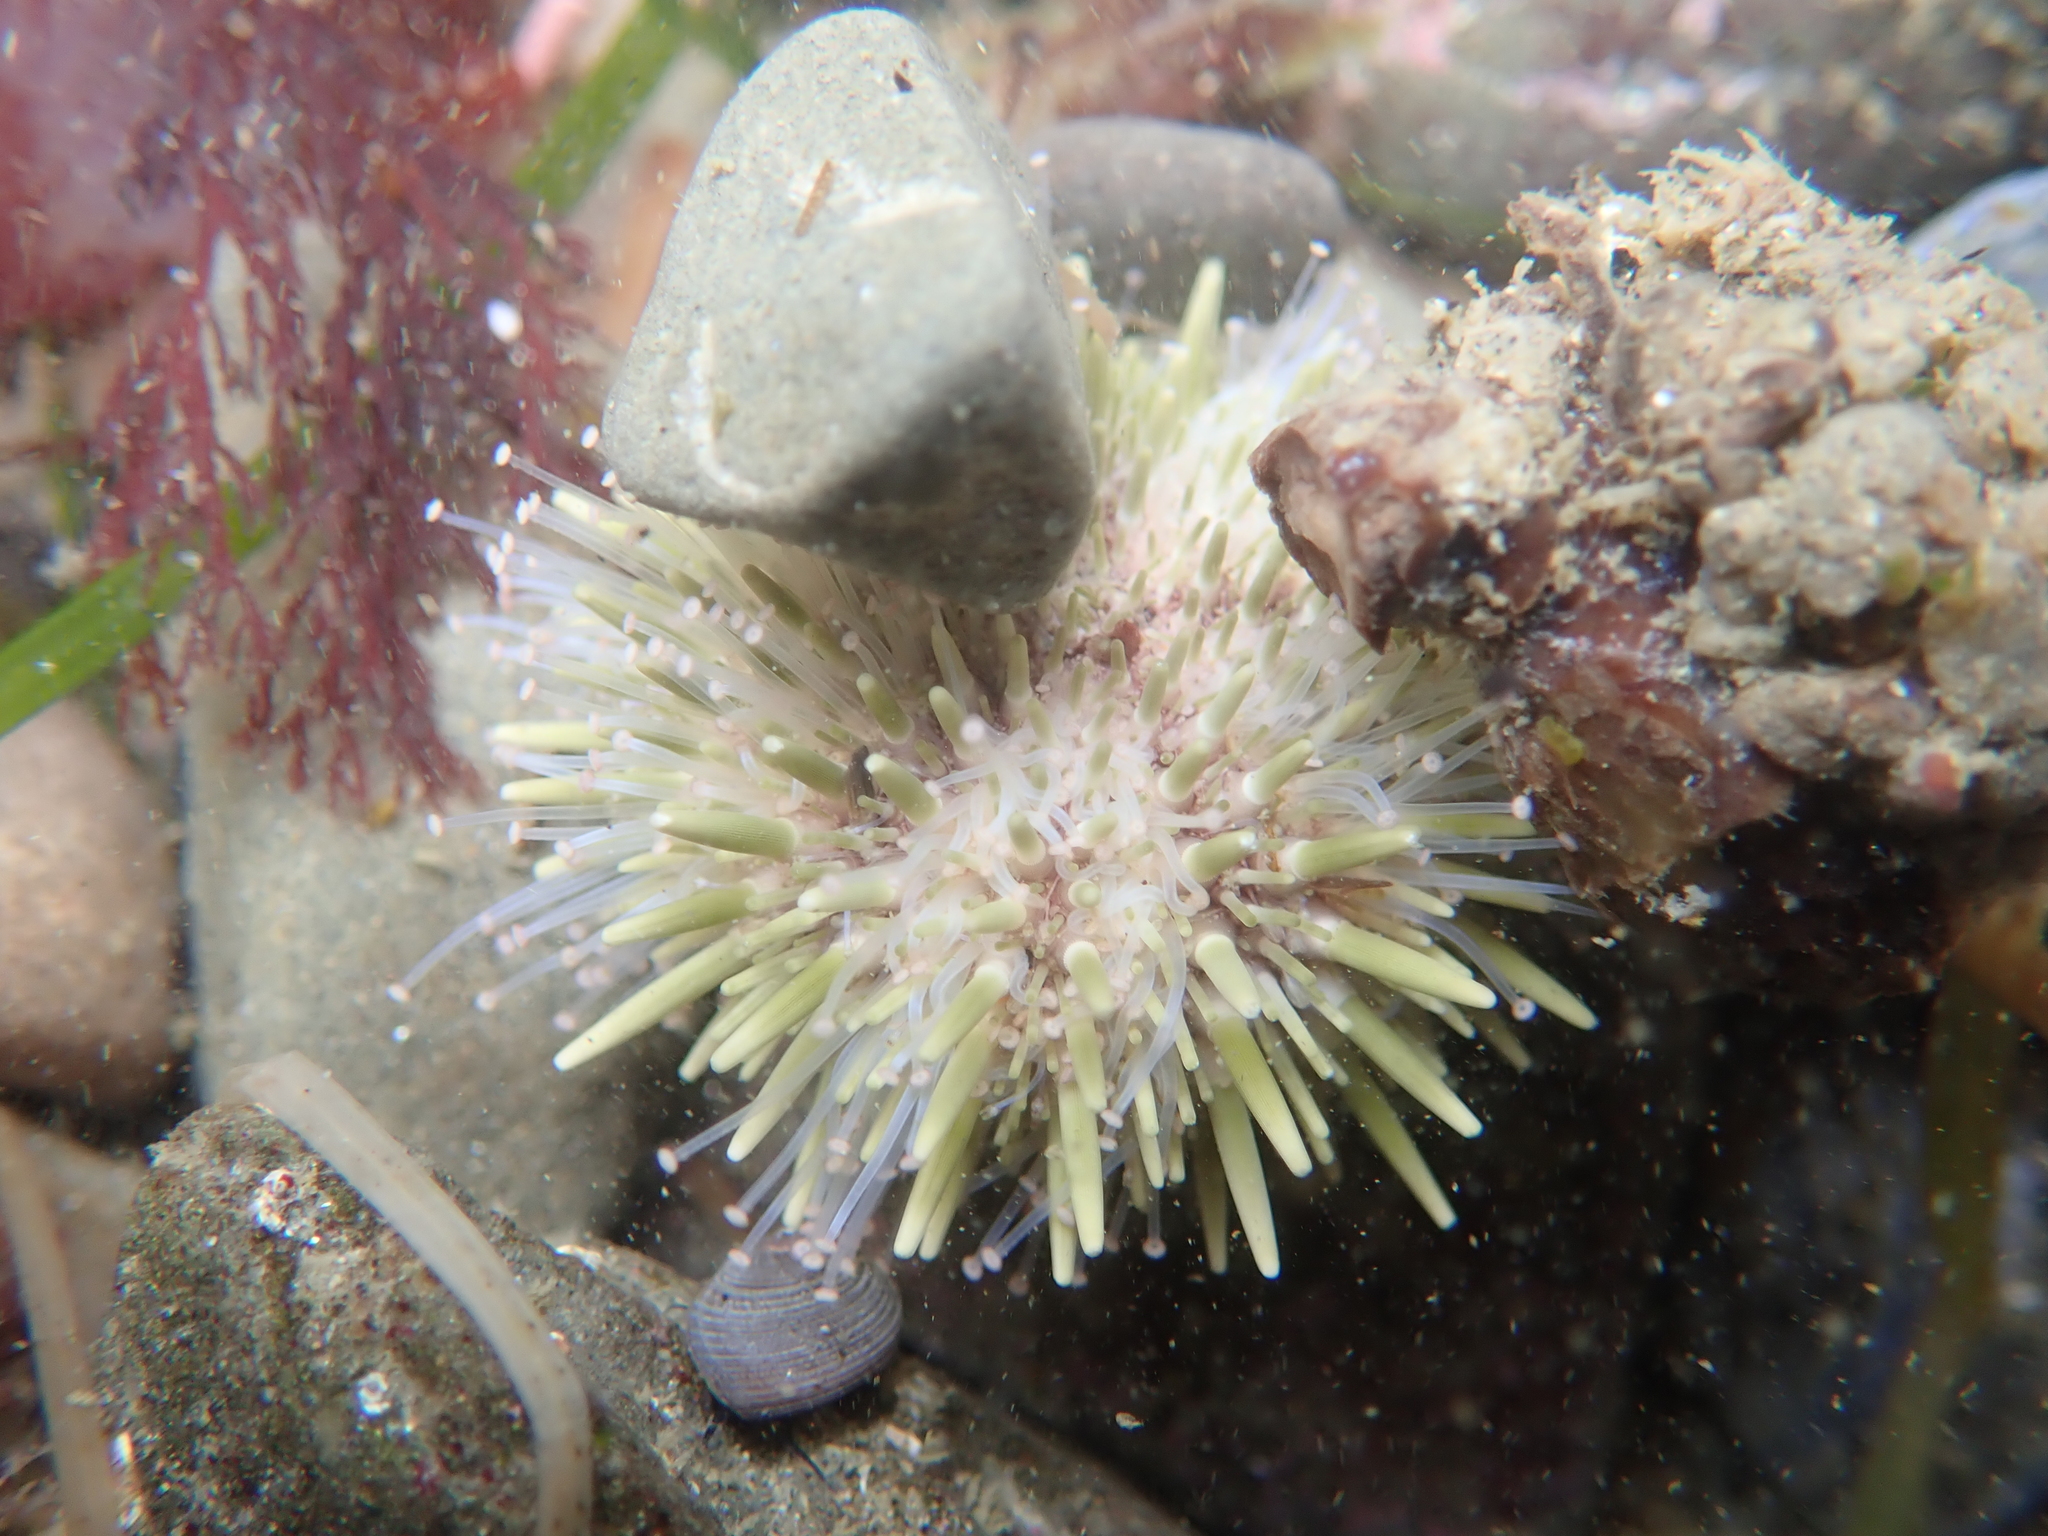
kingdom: Animalia
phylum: Echinodermata
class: Echinoidea
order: Camarodonta
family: Strongylocentrotidae
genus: Strongylocentrotus
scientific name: Strongylocentrotus purpuratus
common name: Purple sea urchin
